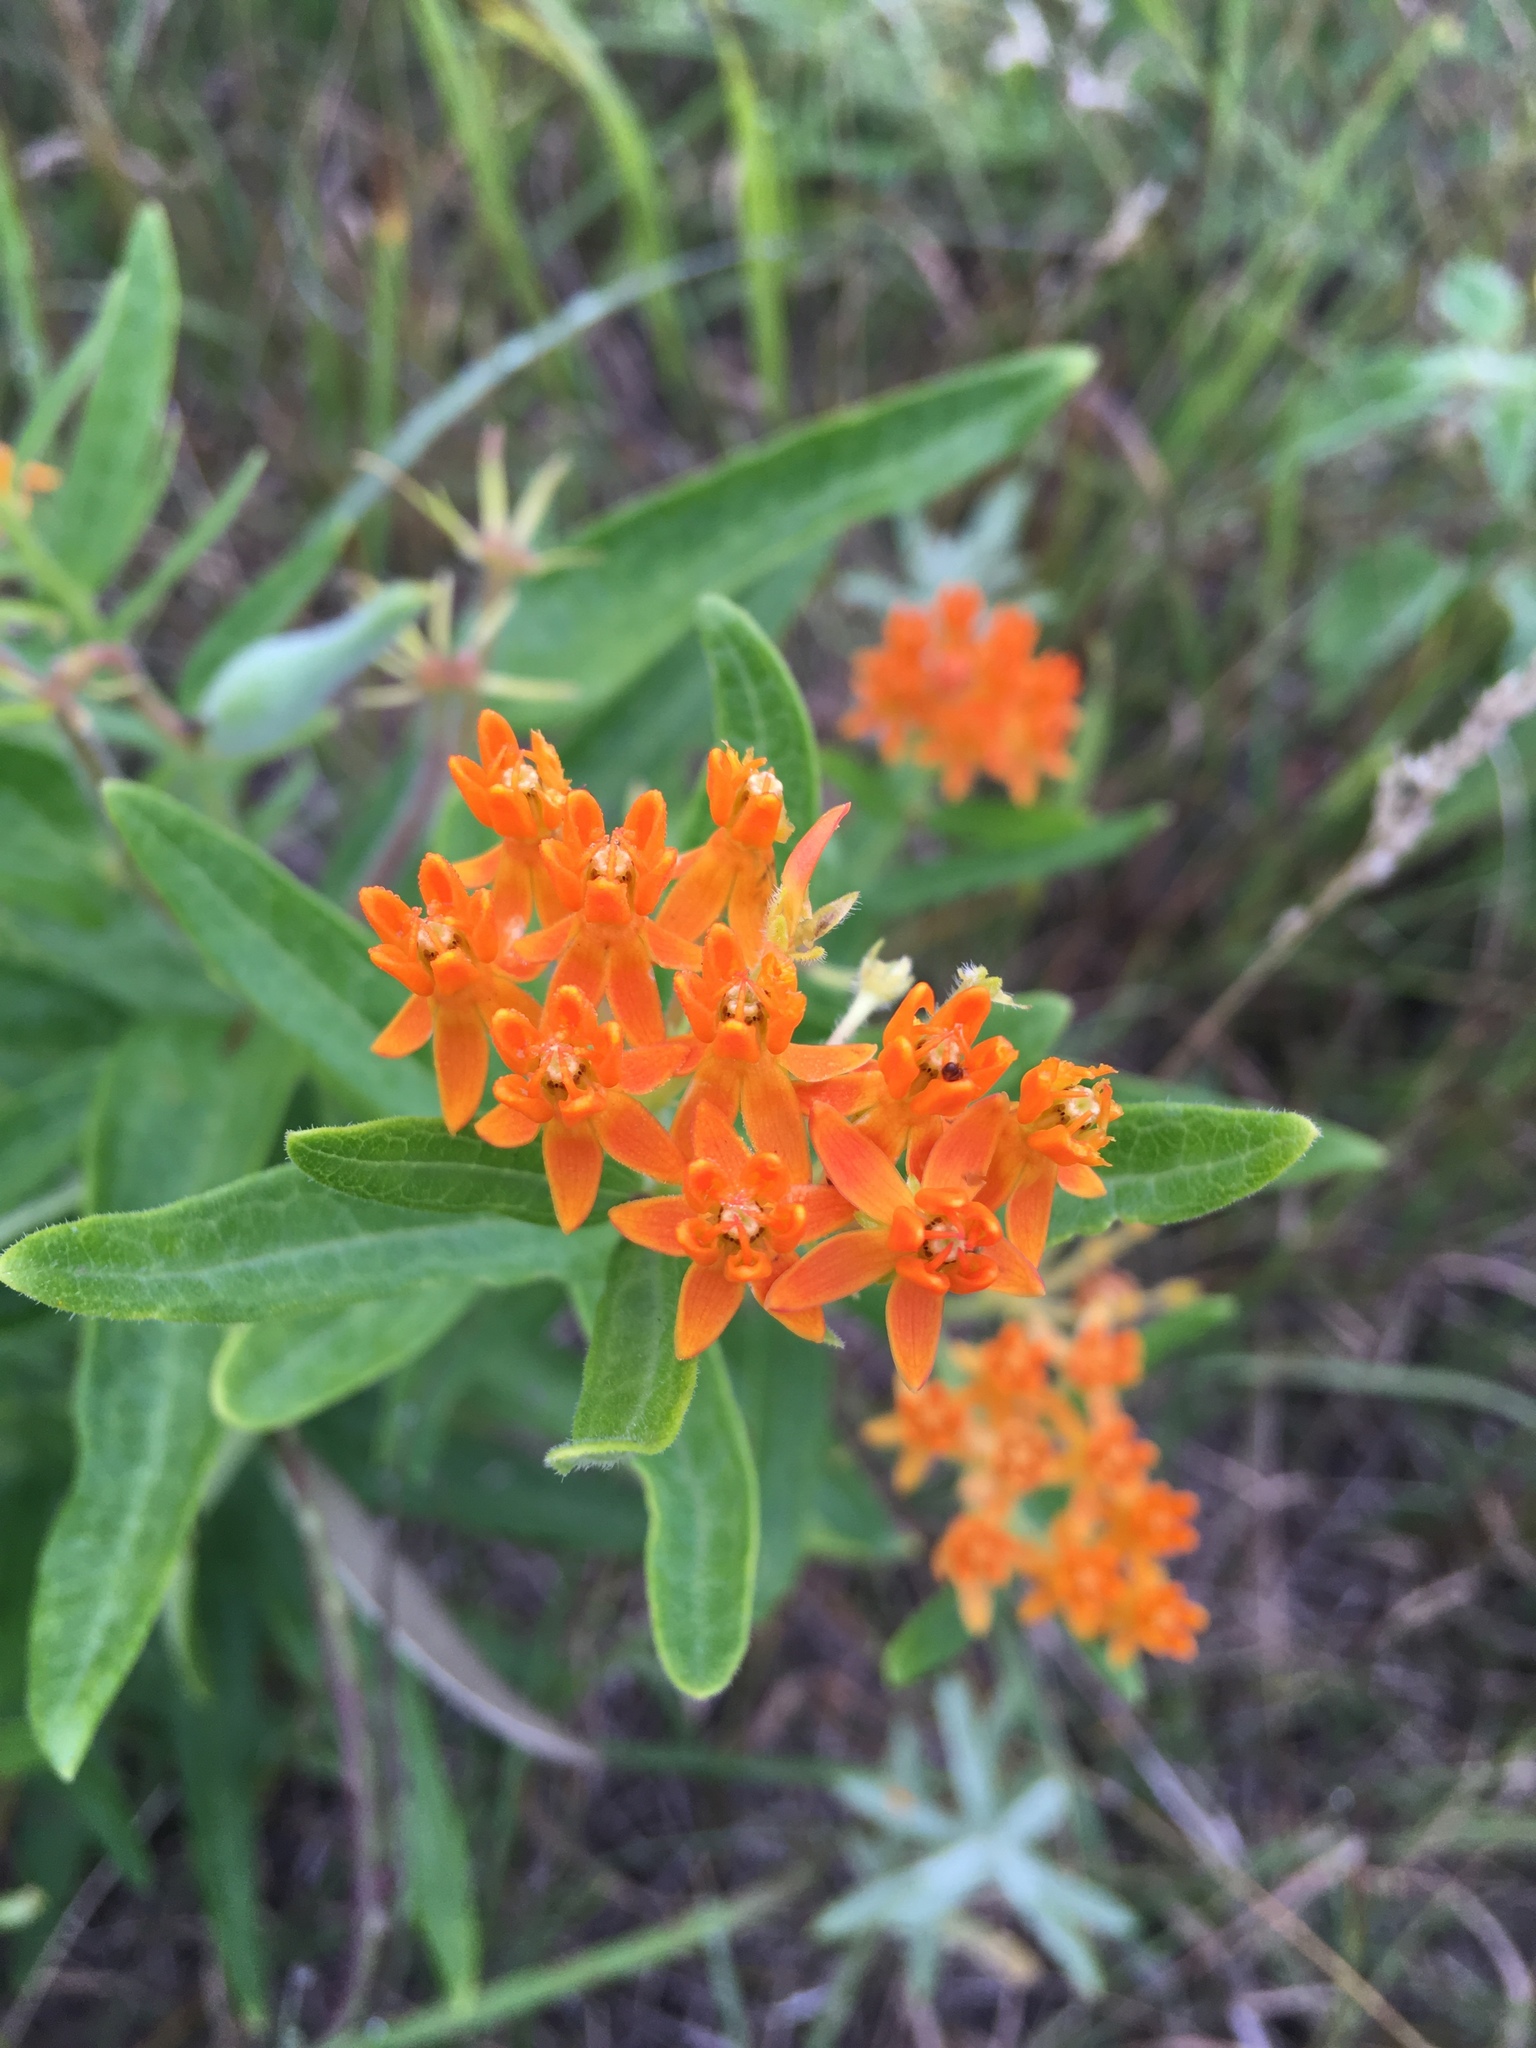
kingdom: Plantae
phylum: Tracheophyta
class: Magnoliopsida
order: Gentianales
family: Apocynaceae
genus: Asclepias
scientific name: Asclepias tuberosa
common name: Butterfly milkweed
